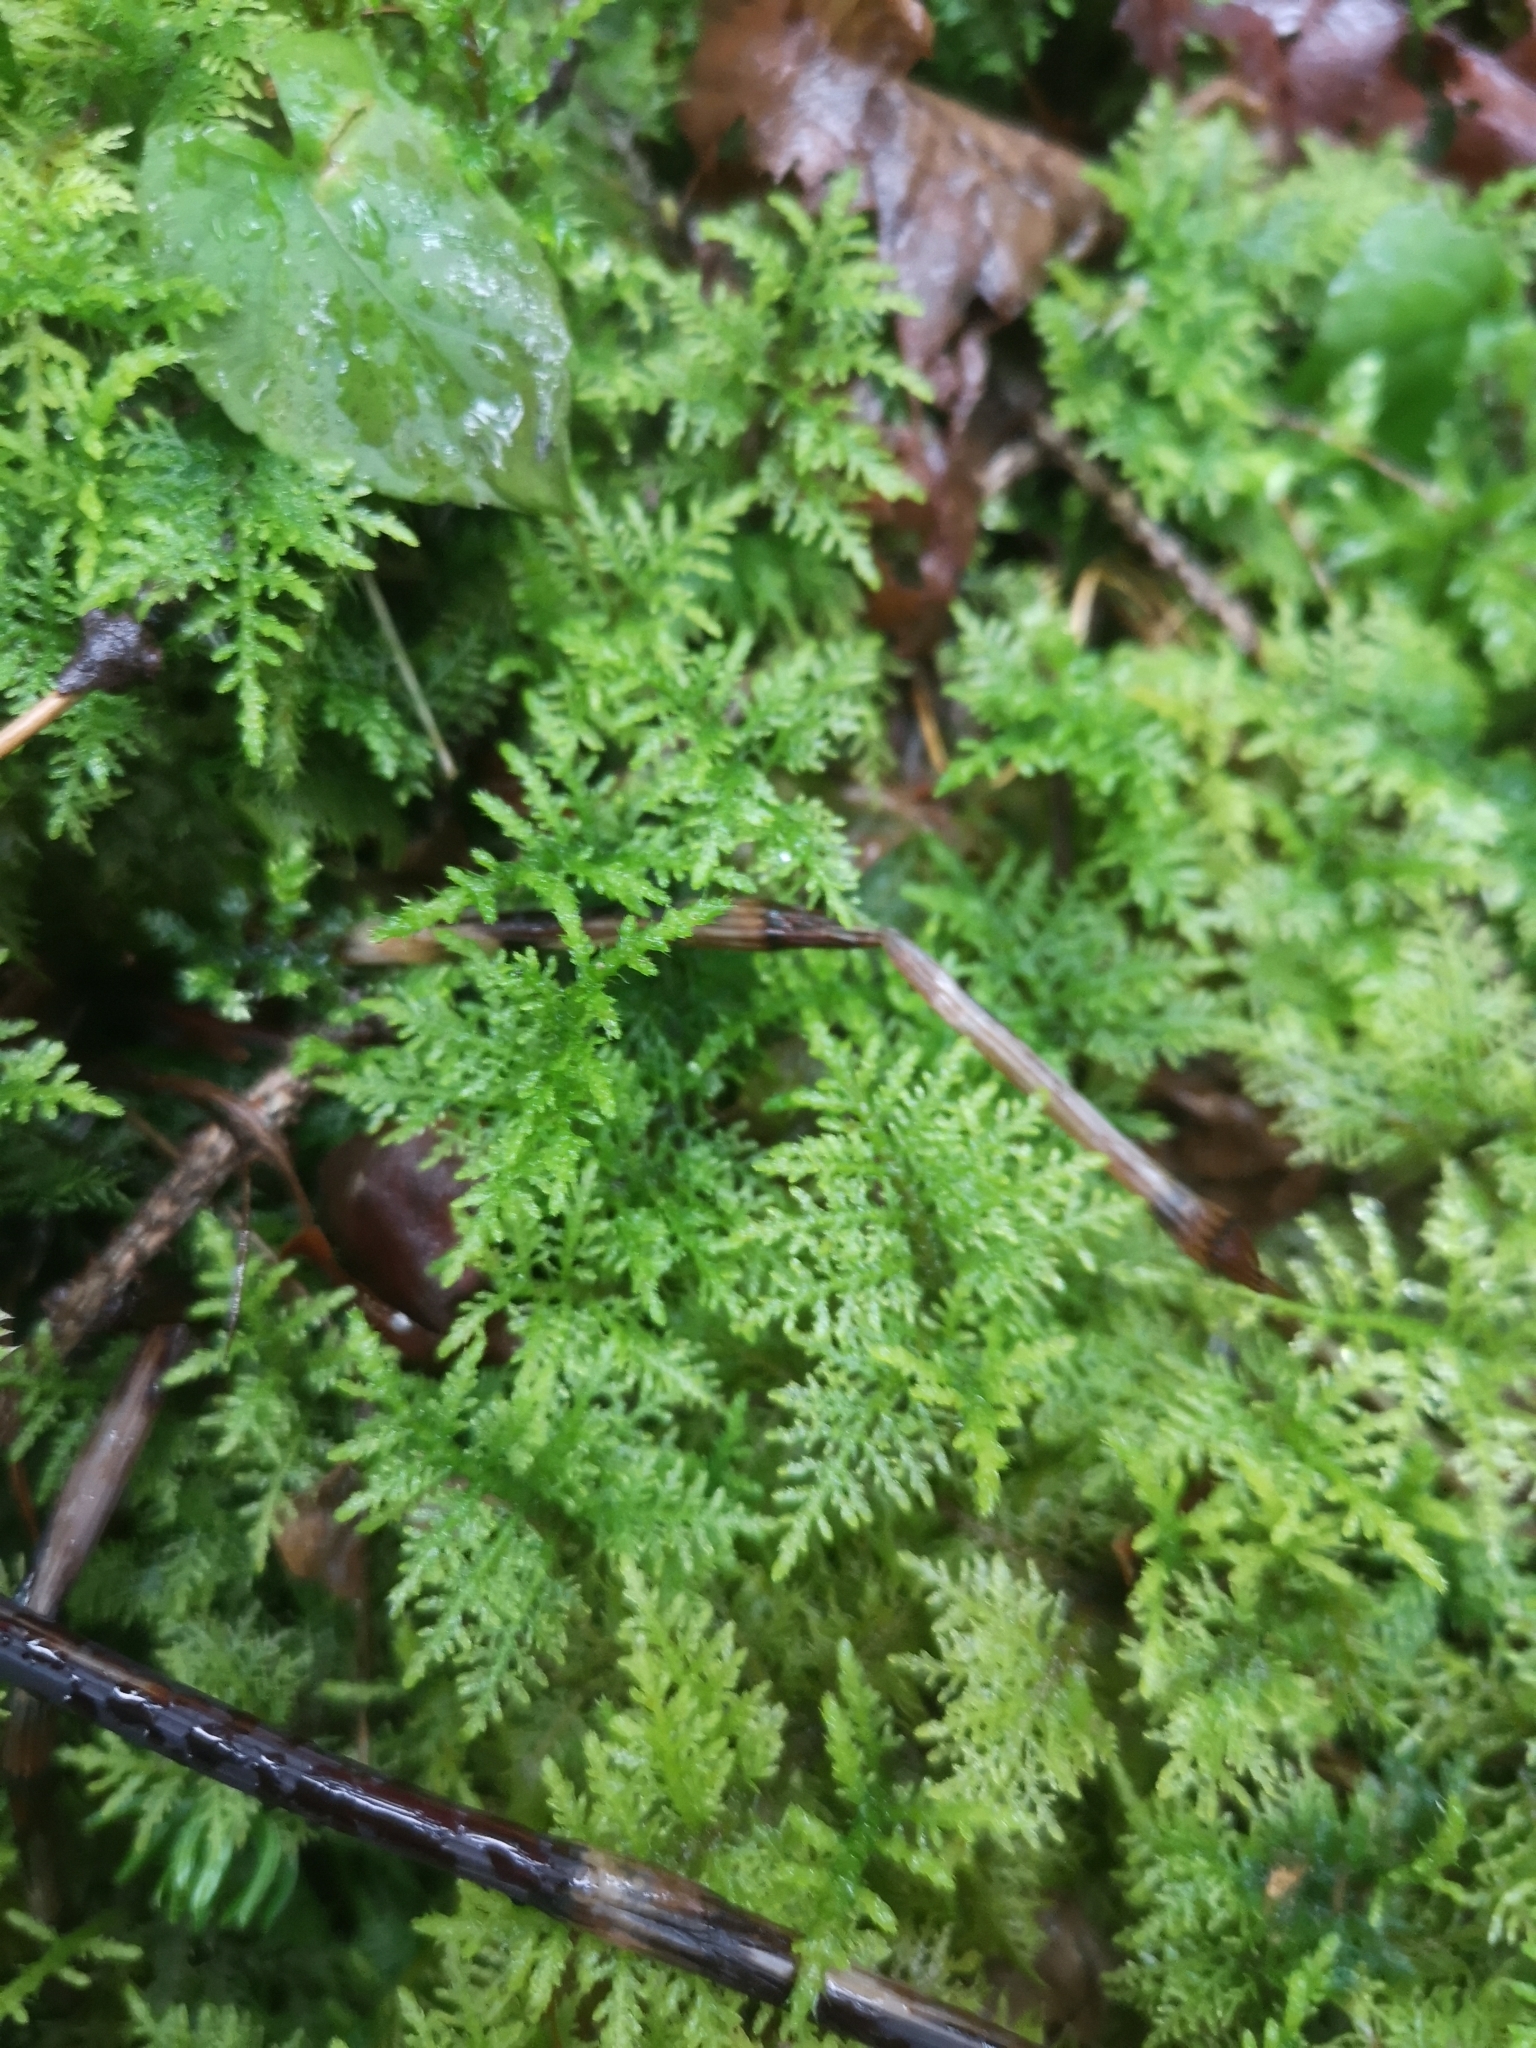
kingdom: Plantae
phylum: Bryophyta
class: Bryopsida
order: Hypnales
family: Thuidiaceae
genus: Thuidium
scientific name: Thuidium tamariscinum
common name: Common tamarisk-moss
